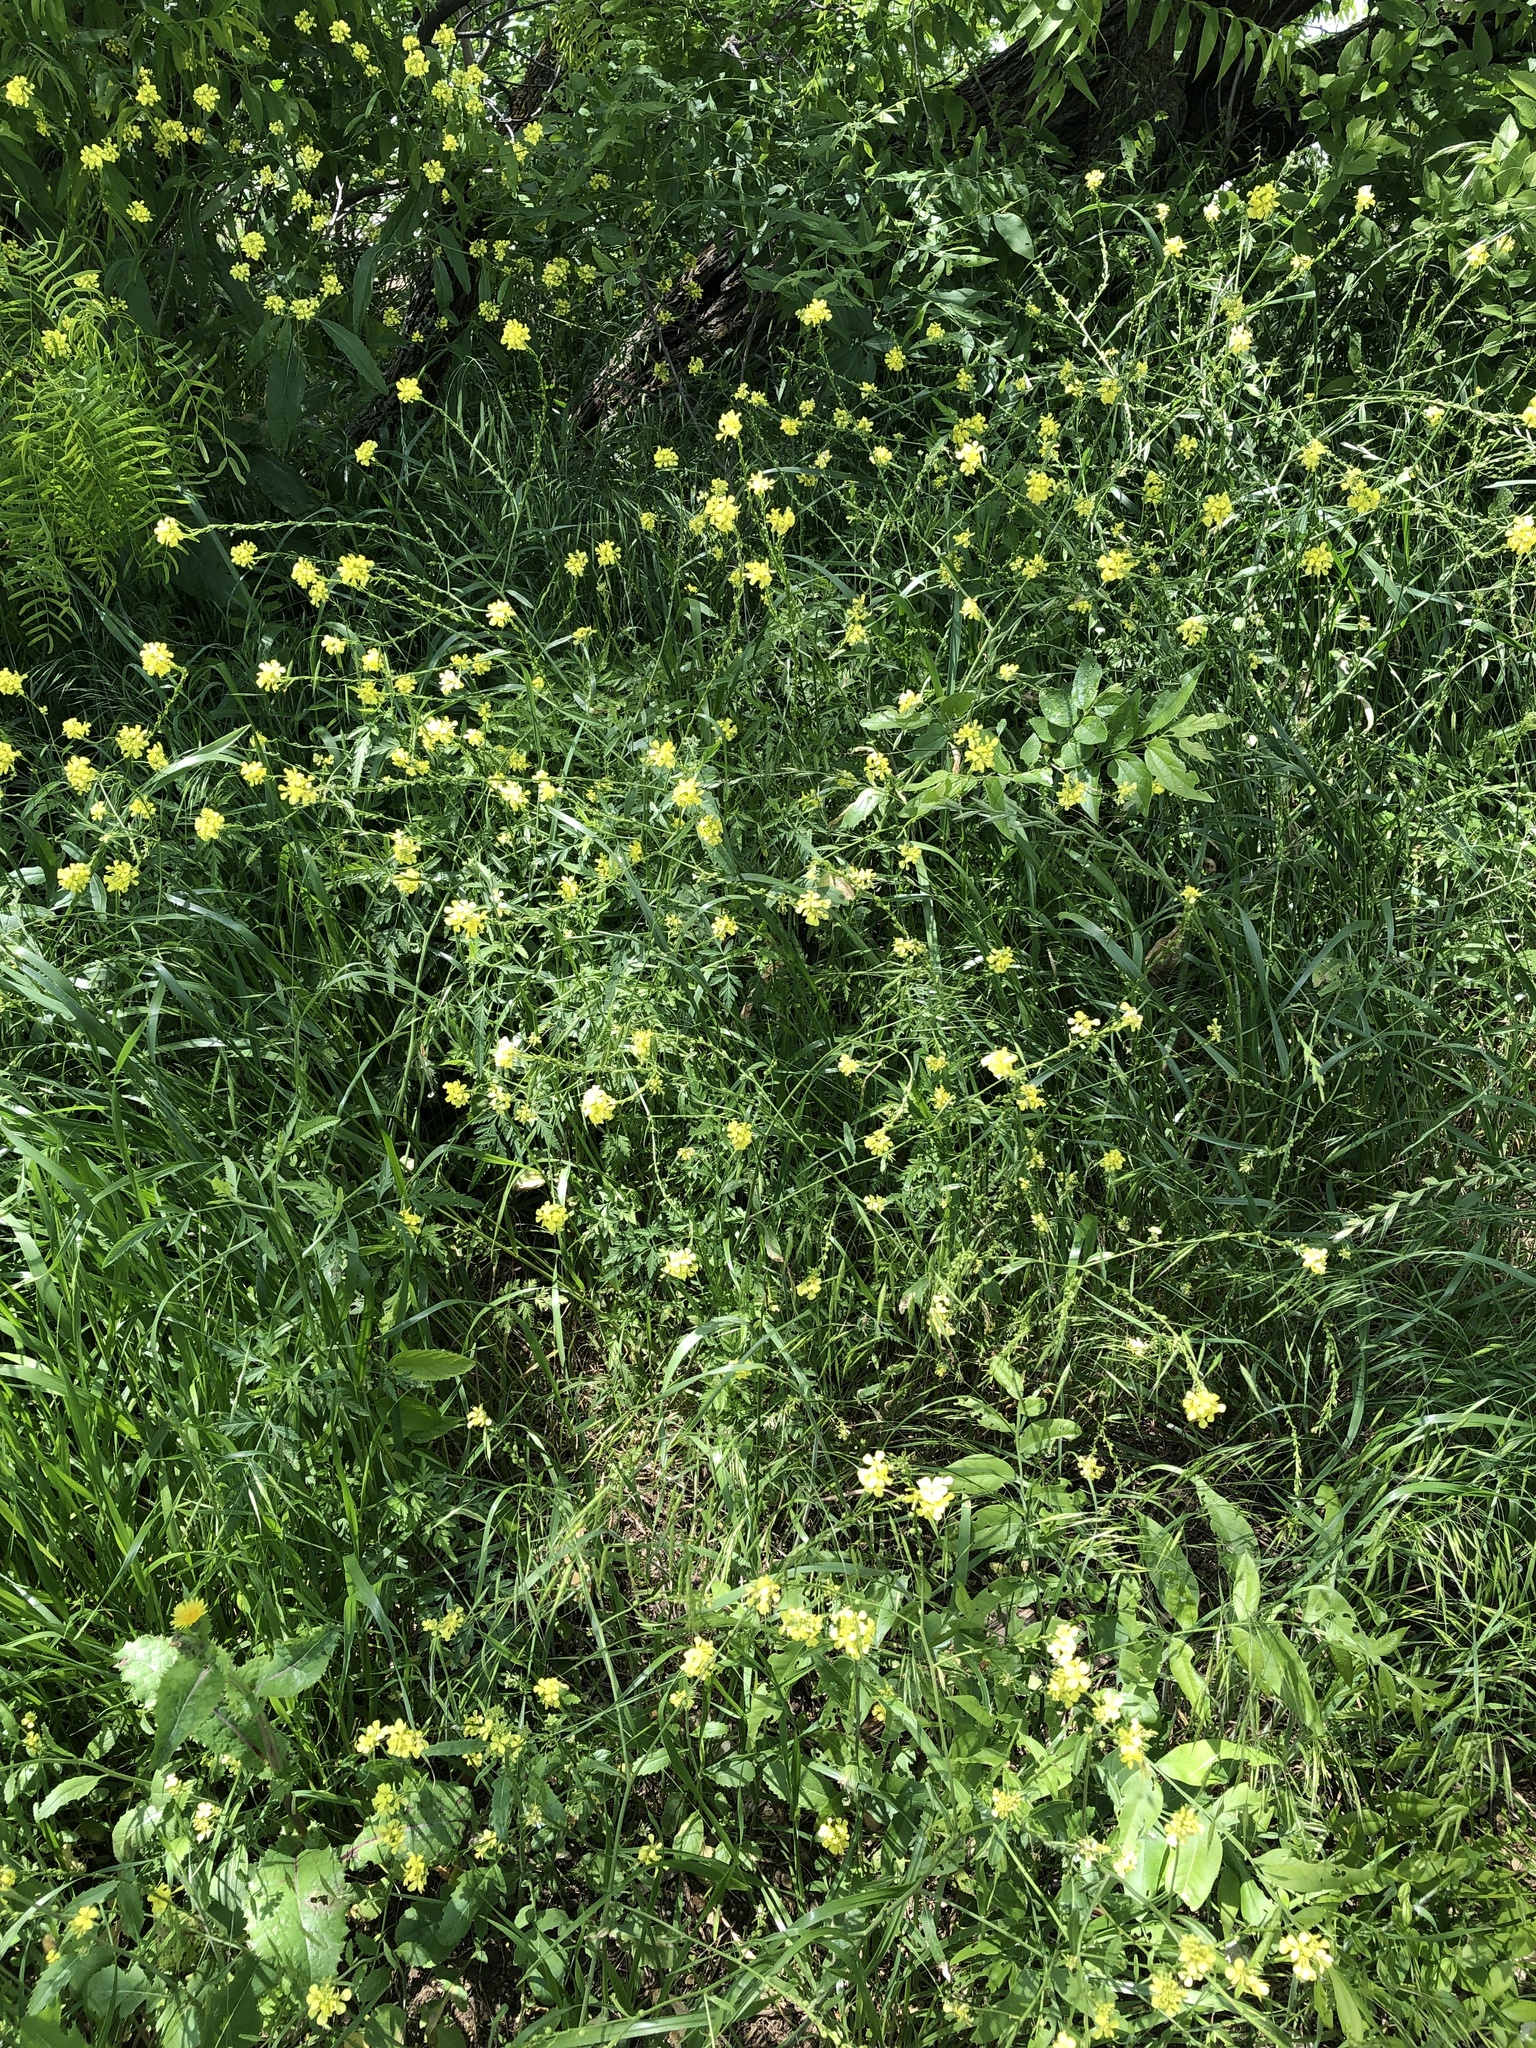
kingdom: Plantae
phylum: Tracheophyta
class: Magnoliopsida
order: Brassicales
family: Brassicaceae
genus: Rapistrum
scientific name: Rapistrum rugosum
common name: Annual bastardcabbage
